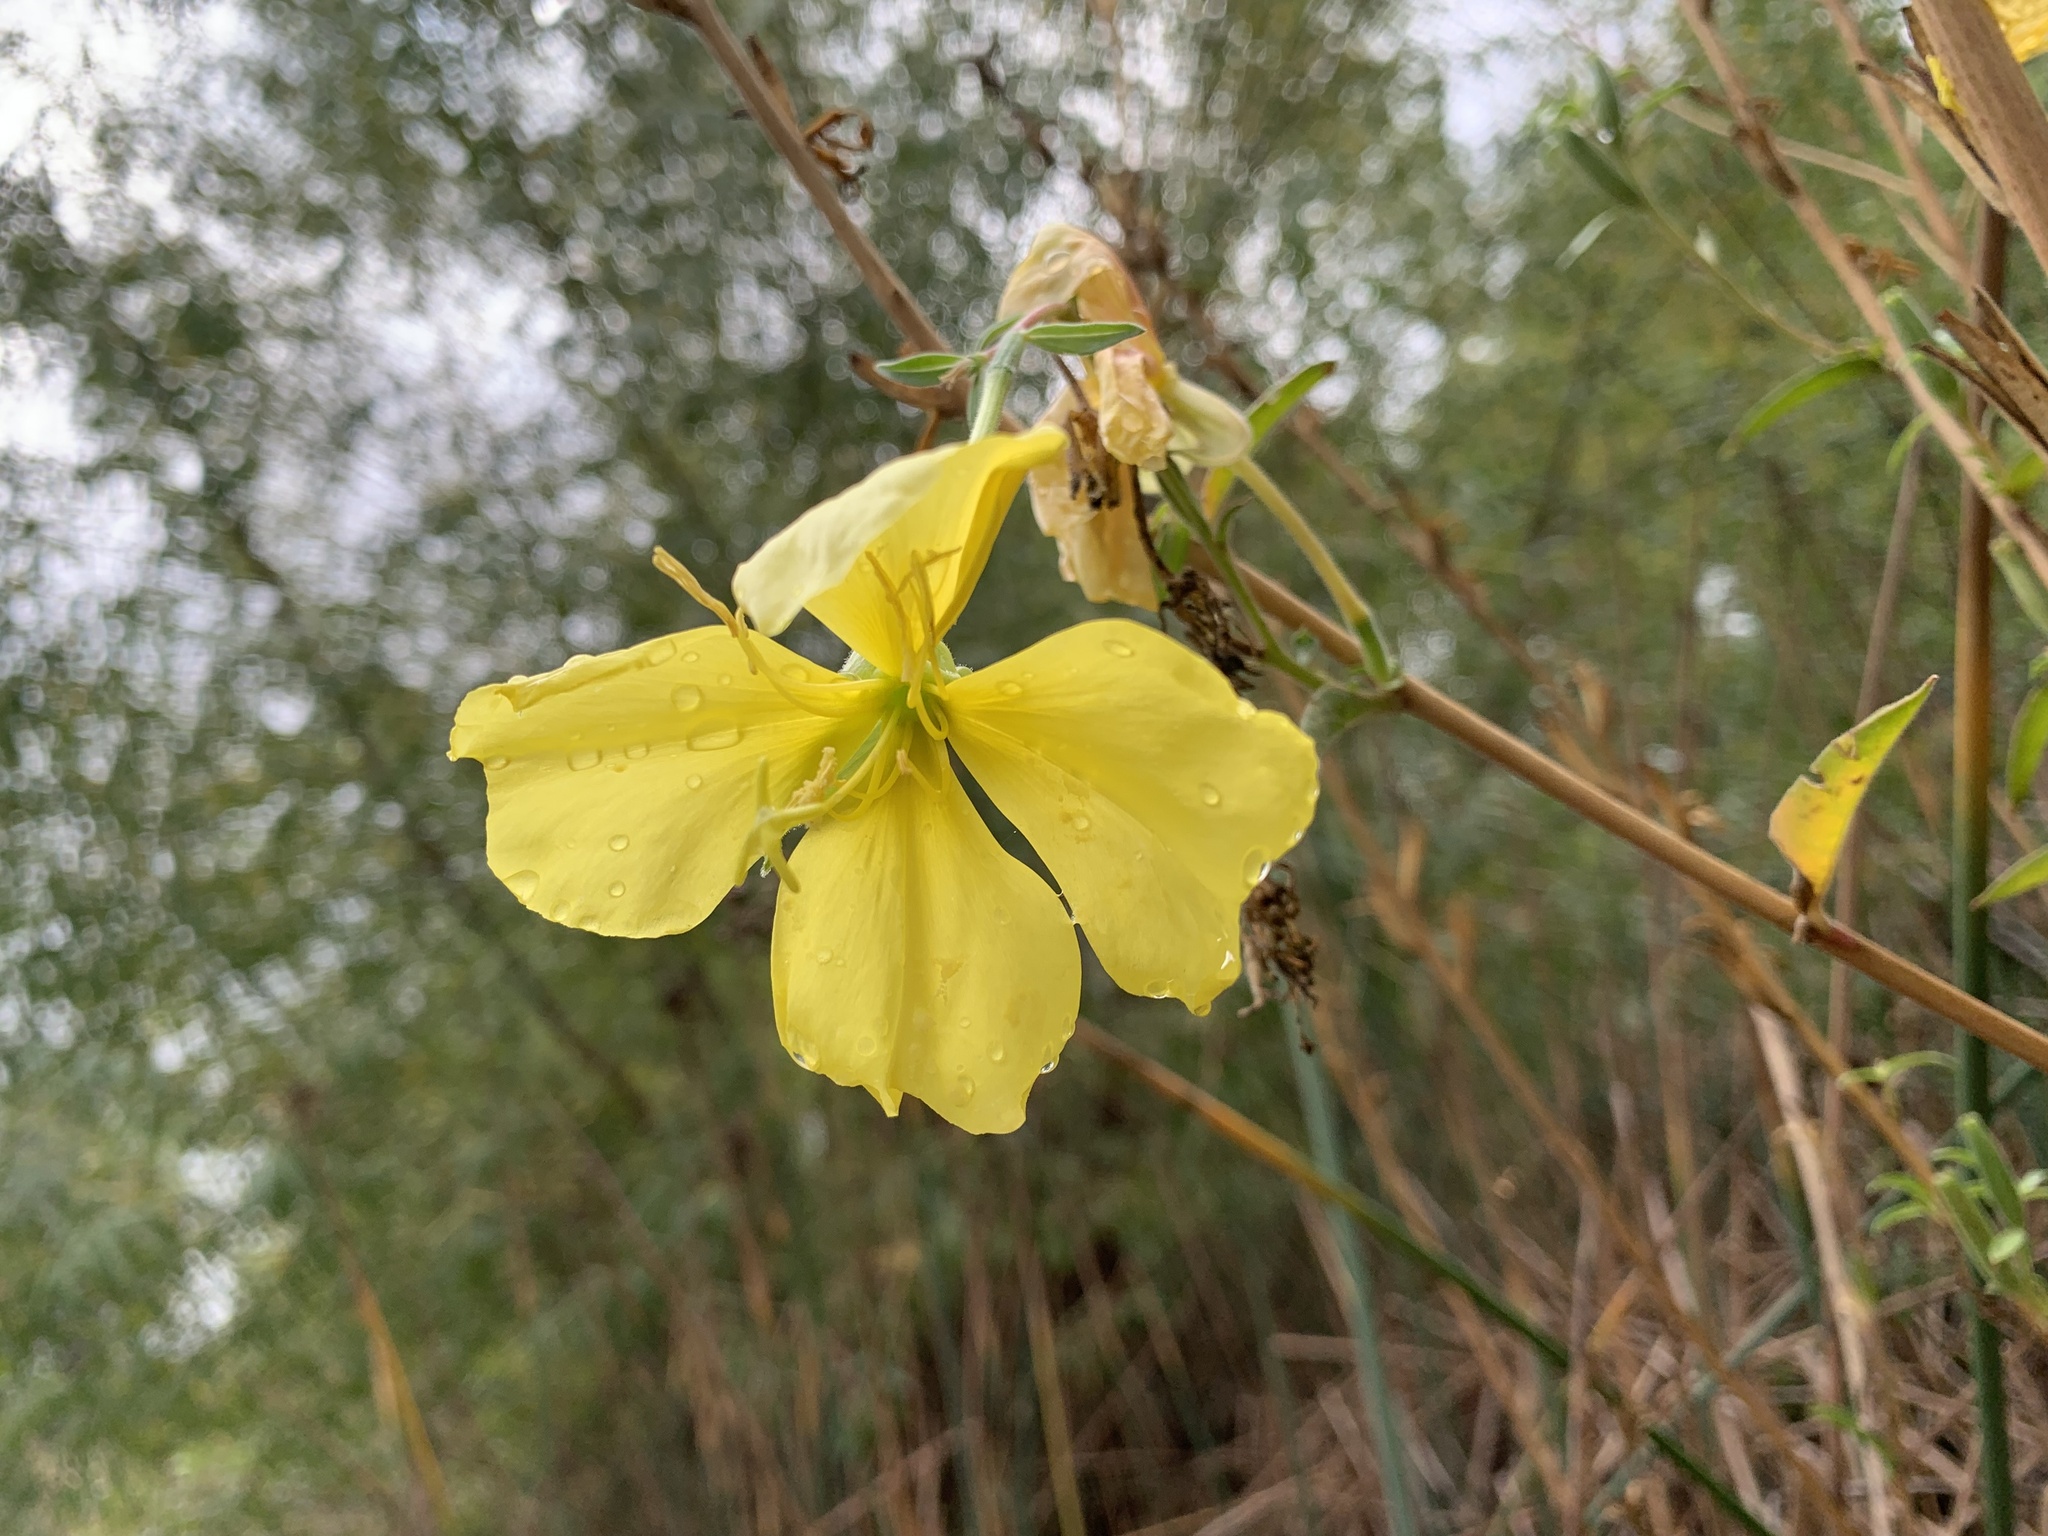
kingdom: Plantae
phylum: Tracheophyta
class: Magnoliopsida
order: Myrtales
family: Onagraceae
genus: Oenothera
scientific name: Oenothera elata
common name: Hooker's evening-primrose
